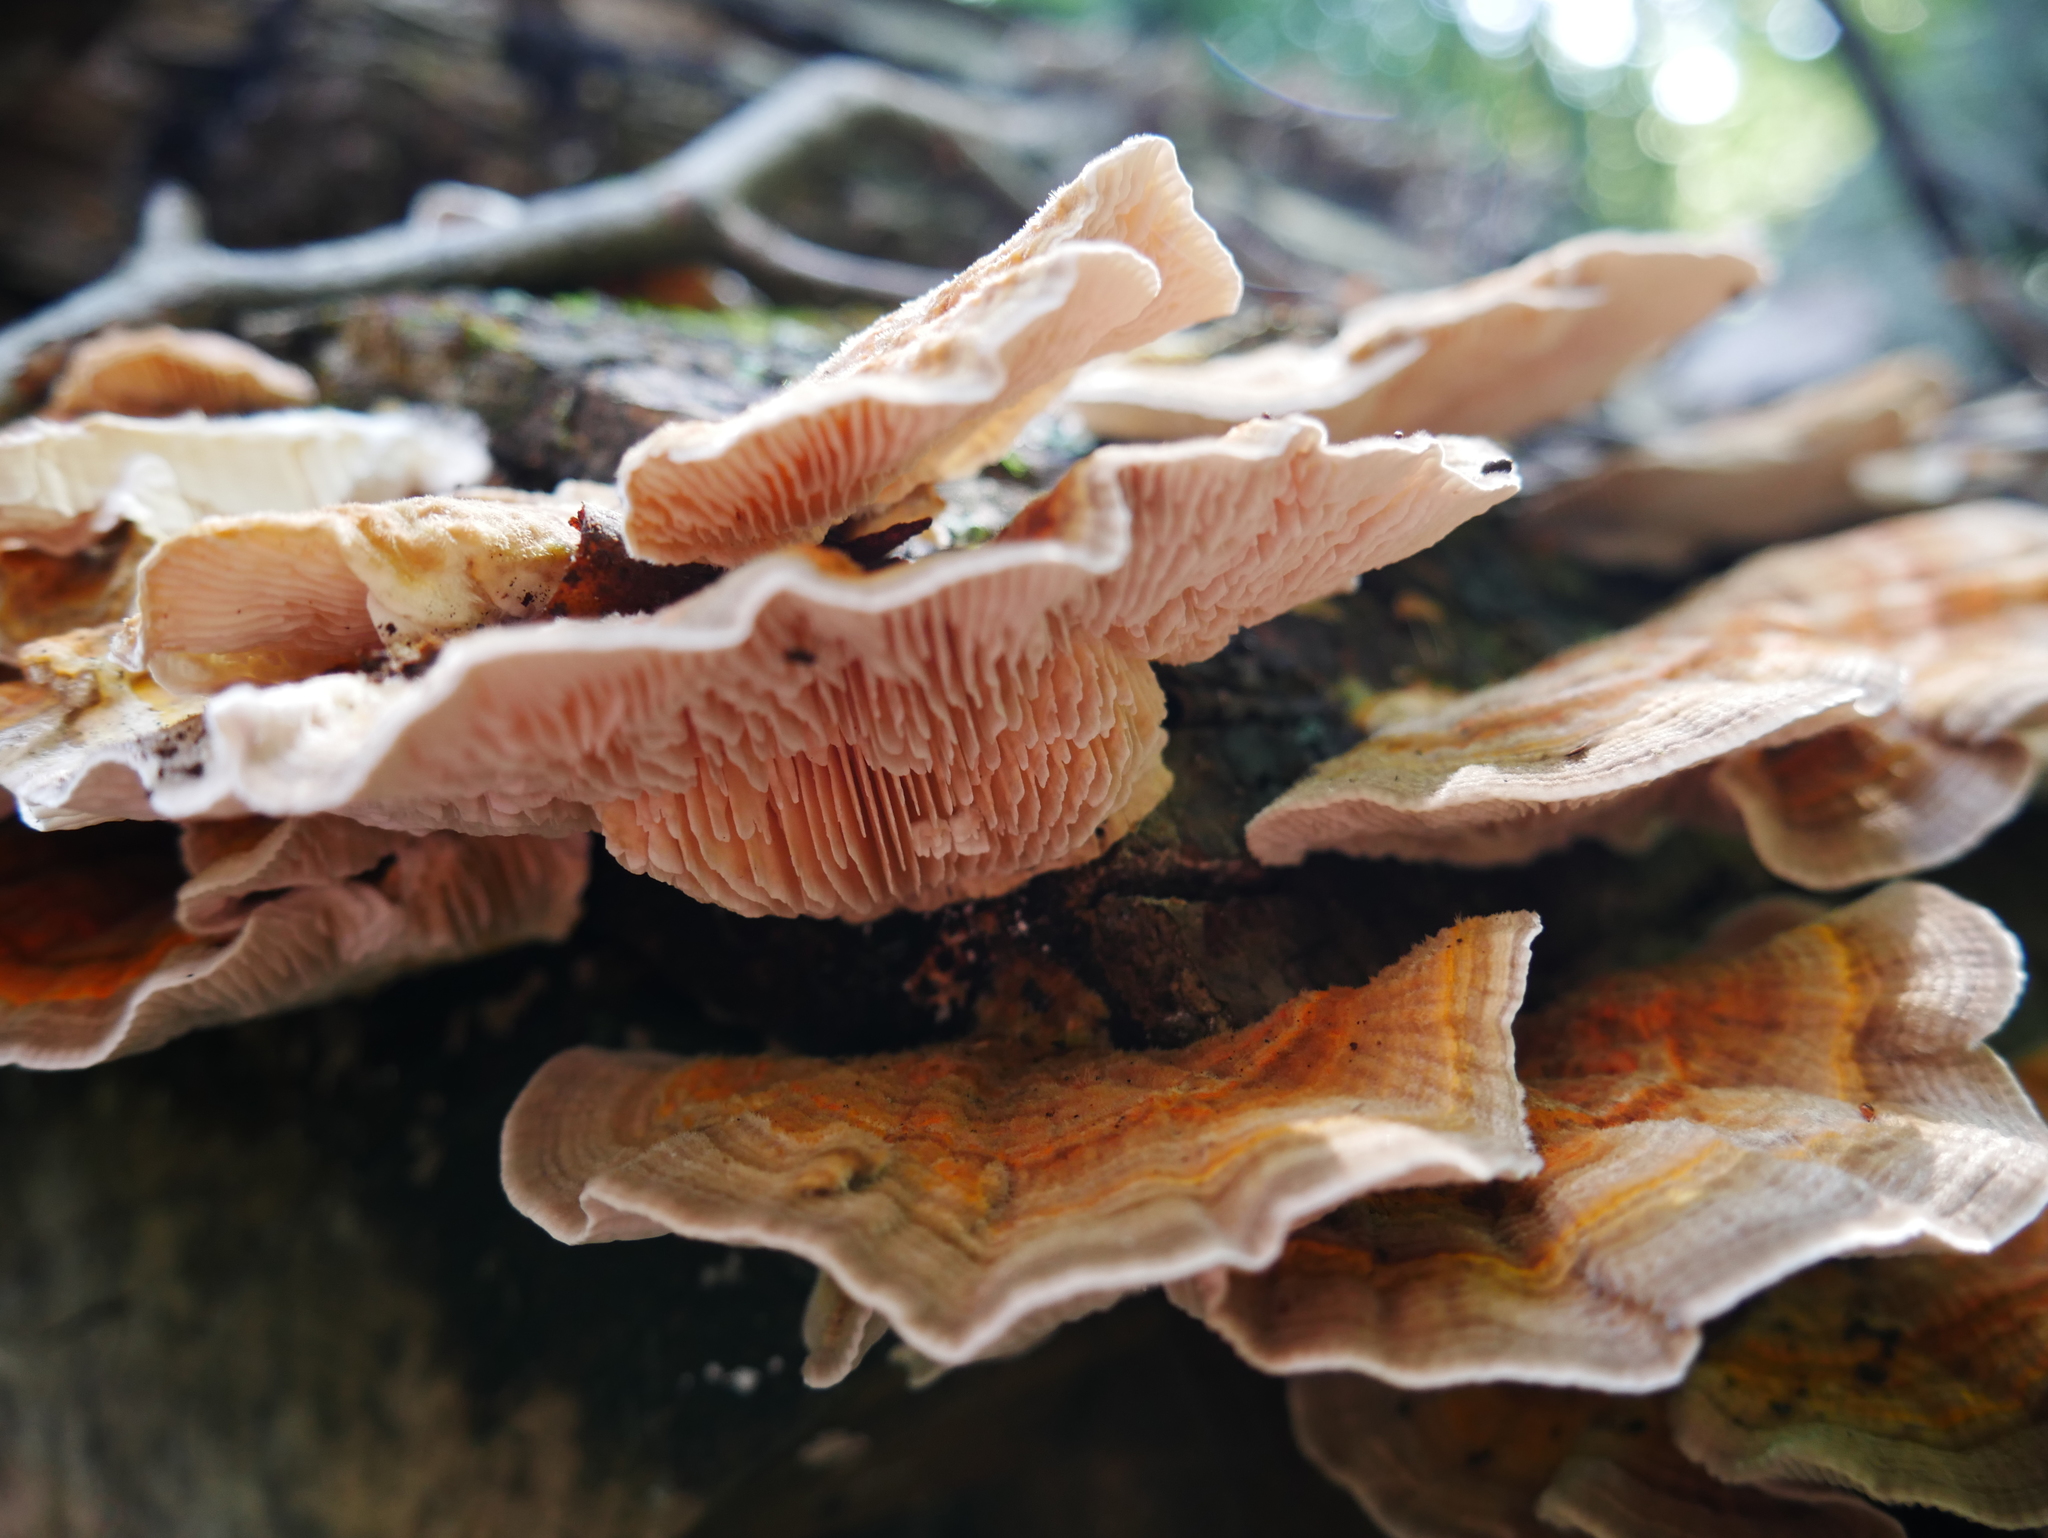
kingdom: Fungi
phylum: Basidiomycota
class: Agaricomycetes
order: Polyporales
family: Polyporaceae
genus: Lenzites
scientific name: Lenzites betulinus
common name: Birch mazegill
